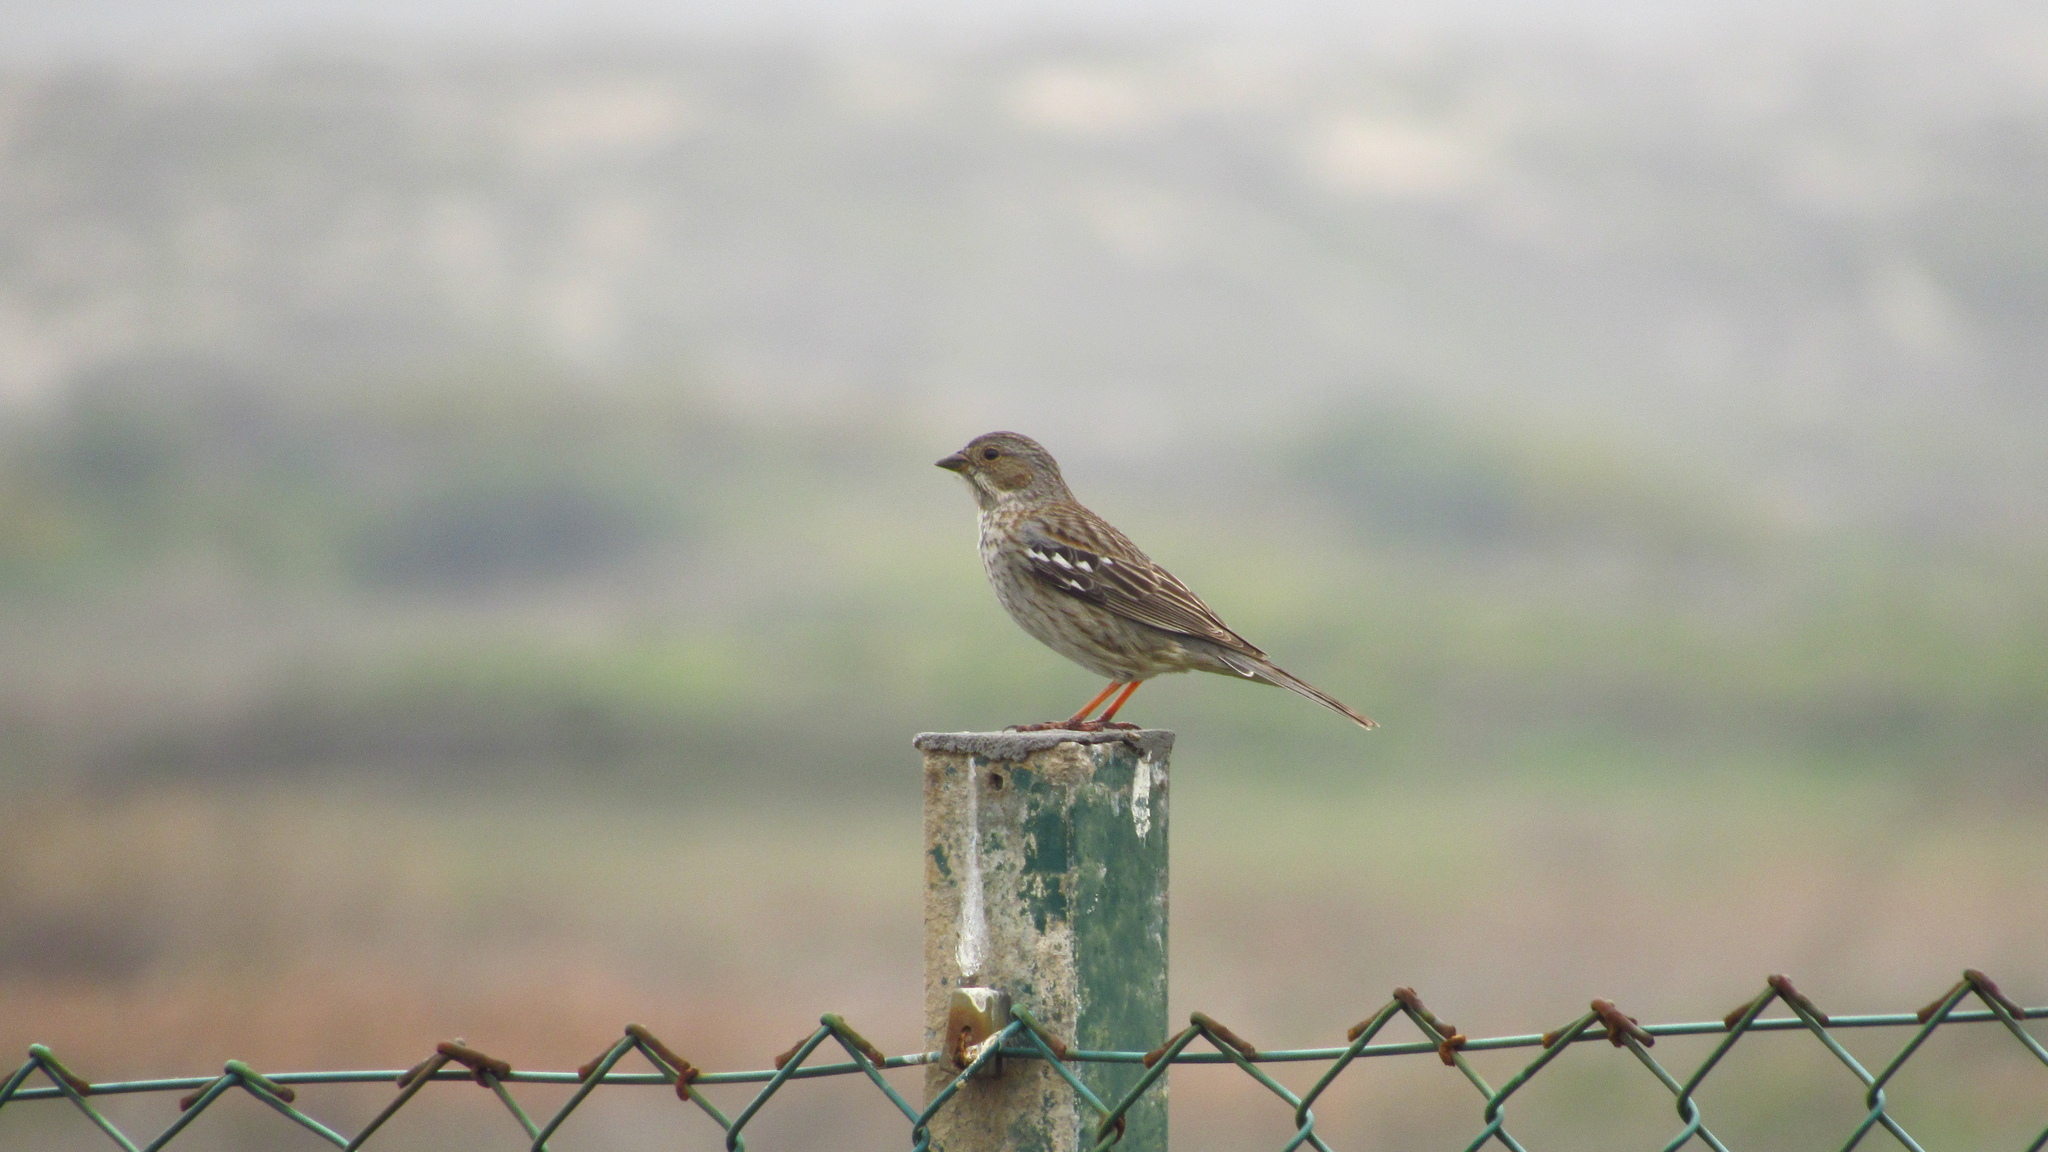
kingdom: Animalia
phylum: Chordata
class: Aves
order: Passeriformes
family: Thraupidae
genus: Rhopospina
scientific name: Rhopospina fruticeti
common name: Mourning sierra finch
